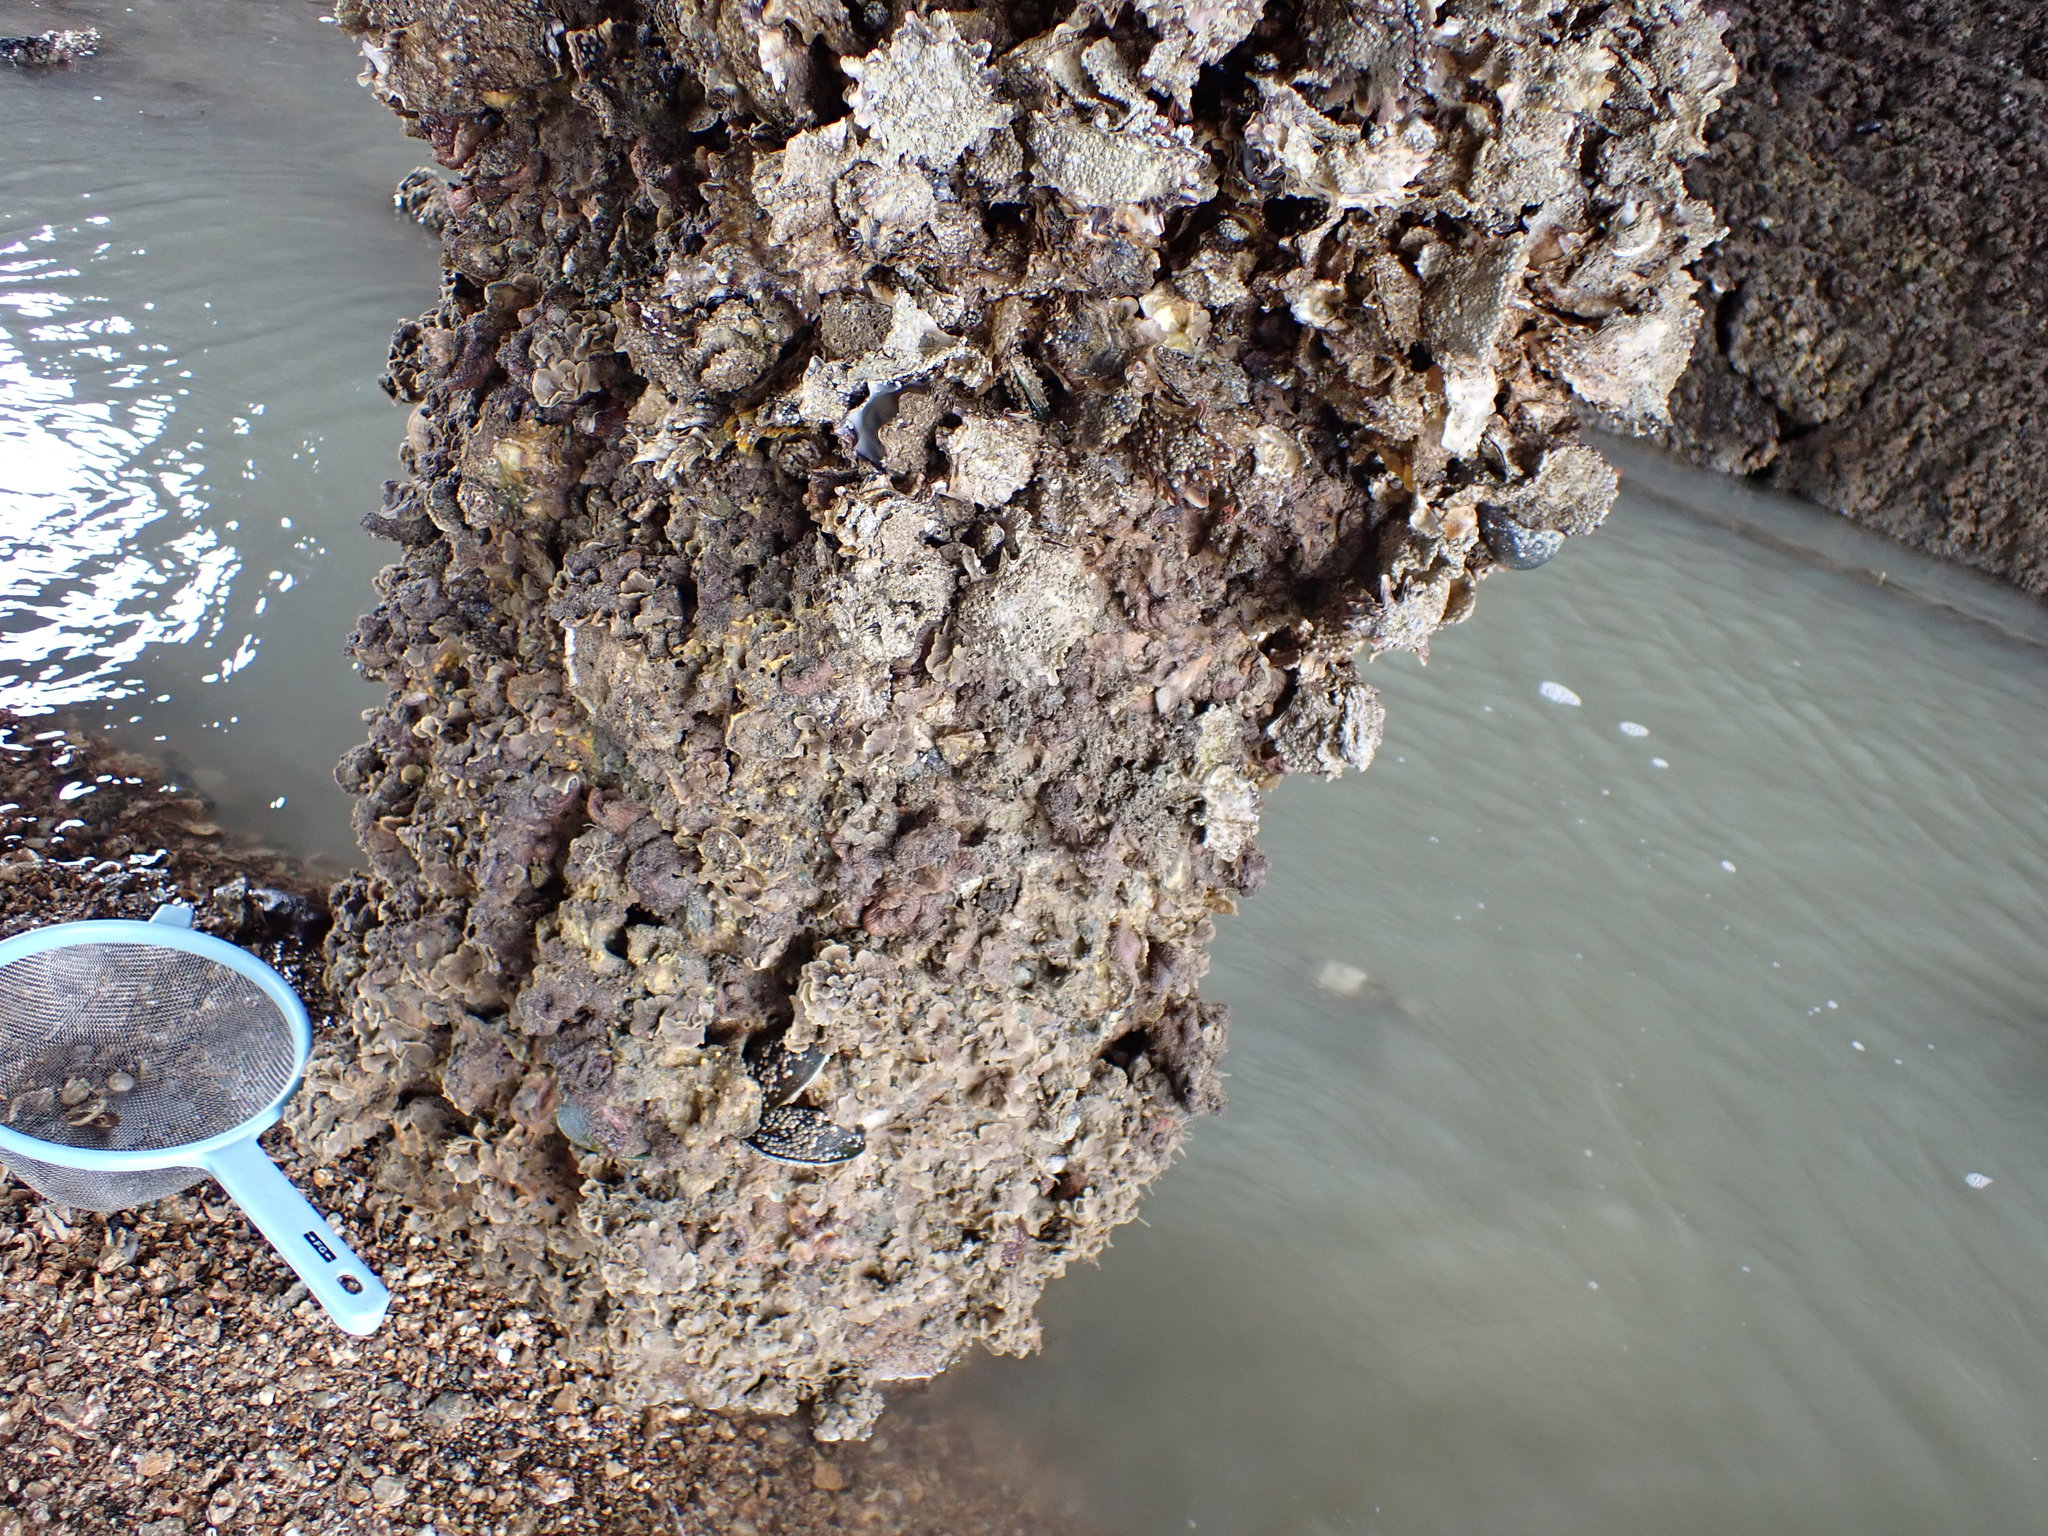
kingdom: Animalia
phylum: Mollusca
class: Bivalvia
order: Ostreida
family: Ostreidae
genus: Magallana
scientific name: Magallana gigas
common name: Pacific oyster
